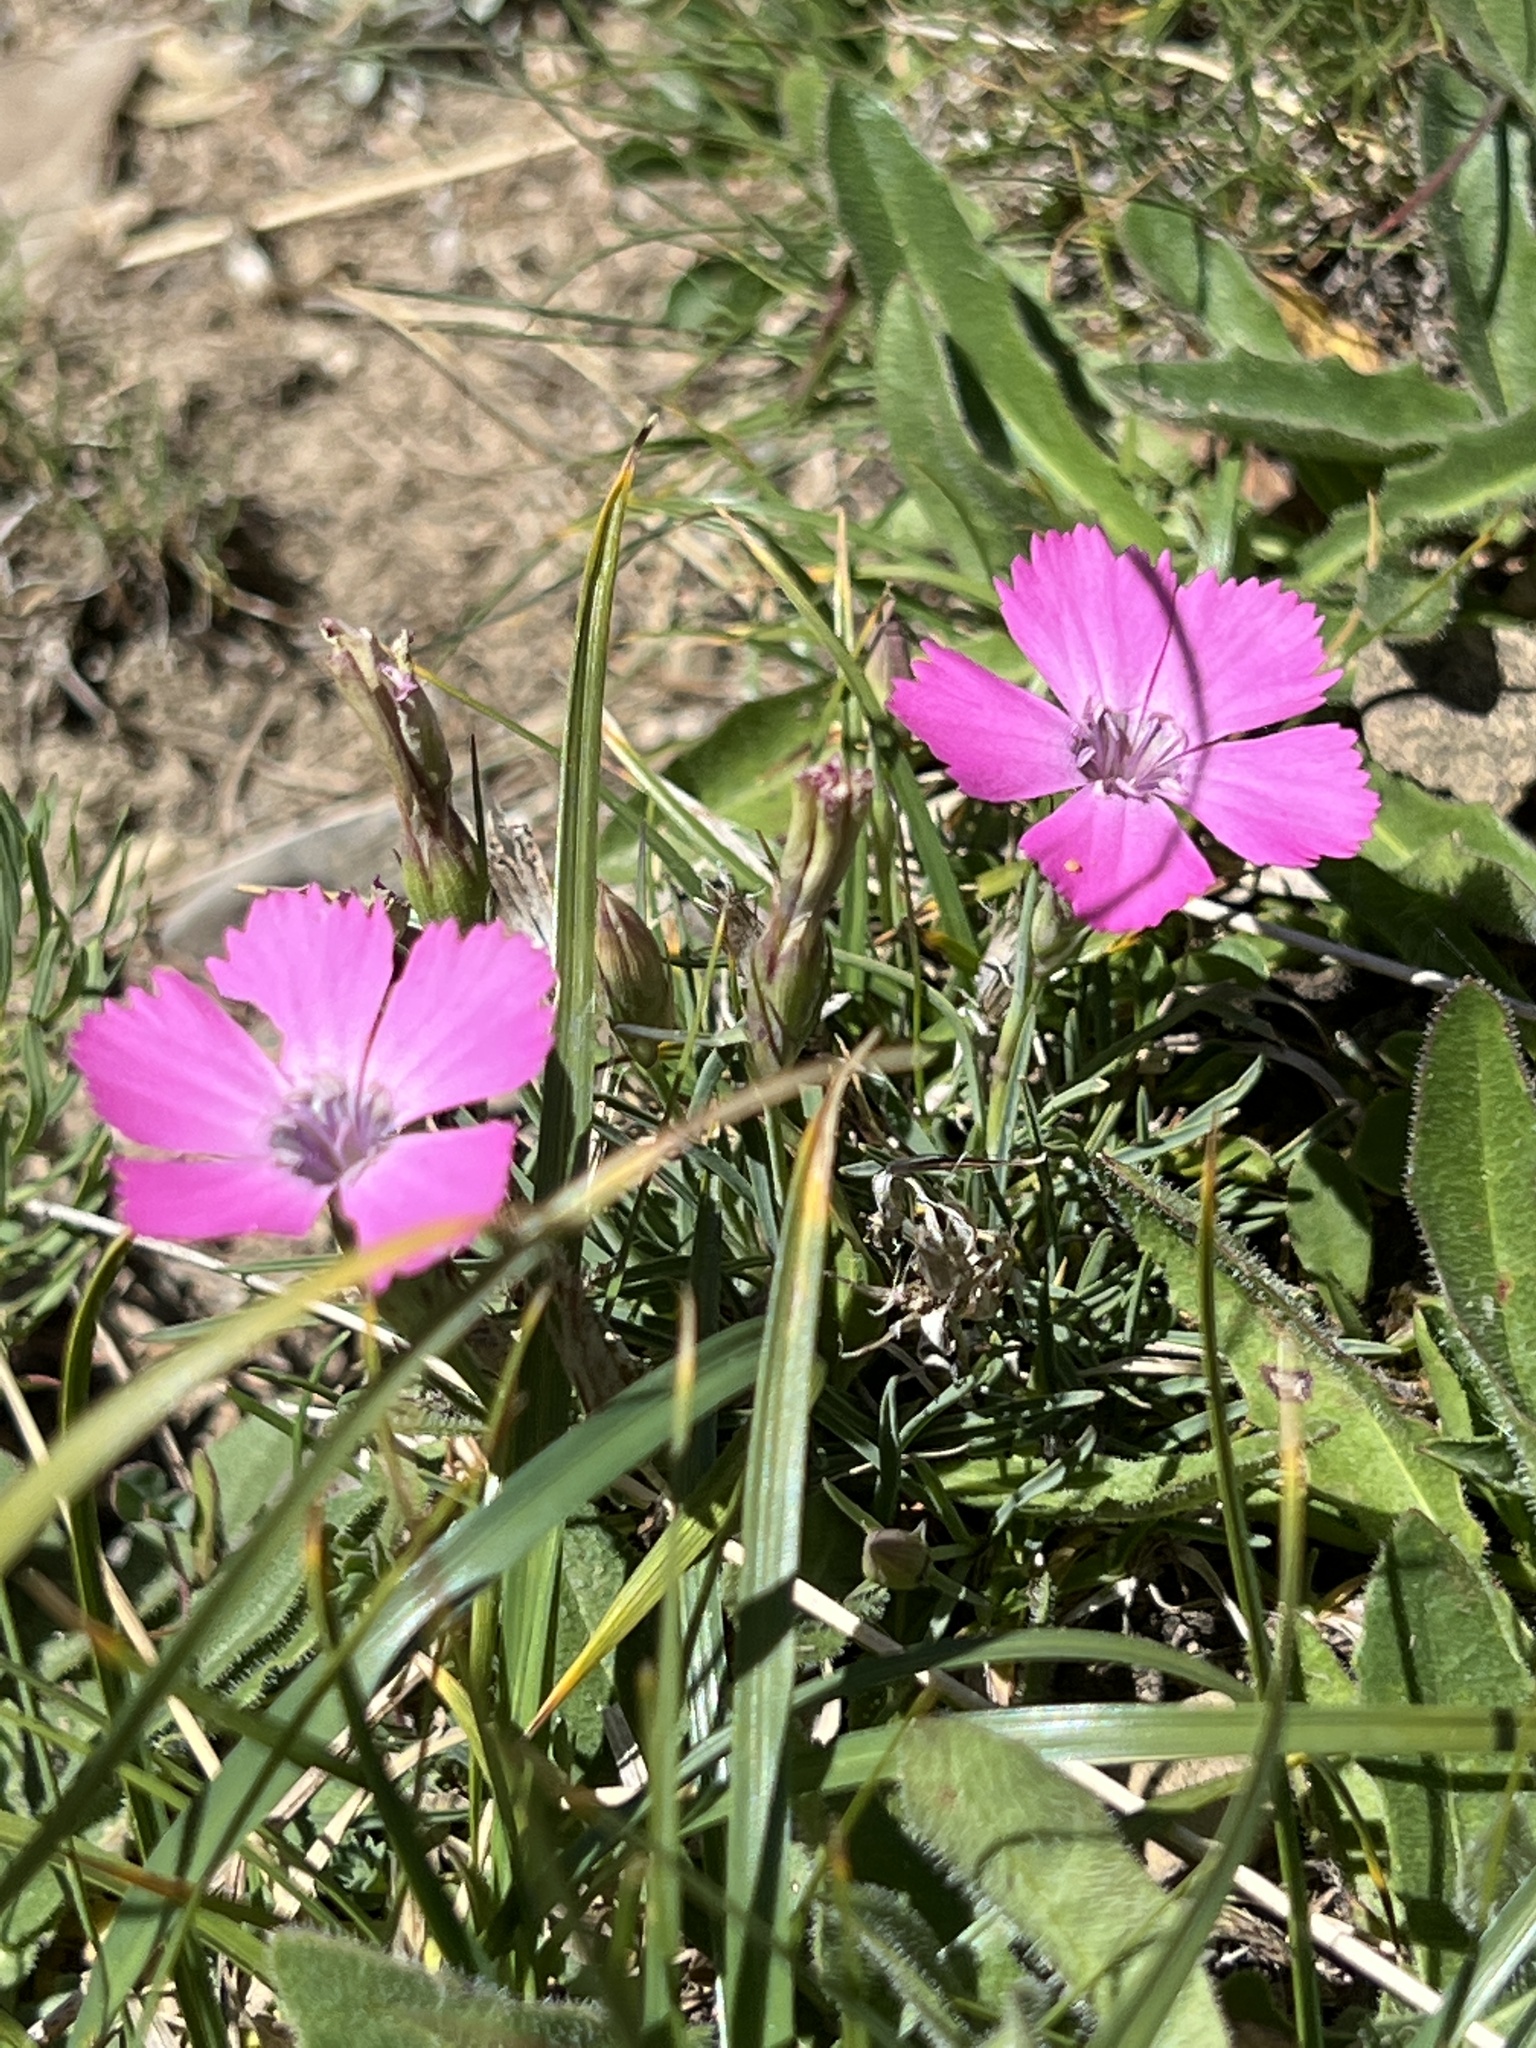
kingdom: Plantae
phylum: Tracheophyta
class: Magnoliopsida
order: Caryophyllales
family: Caryophyllaceae
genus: Dianthus
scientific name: Dianthus pavonius
